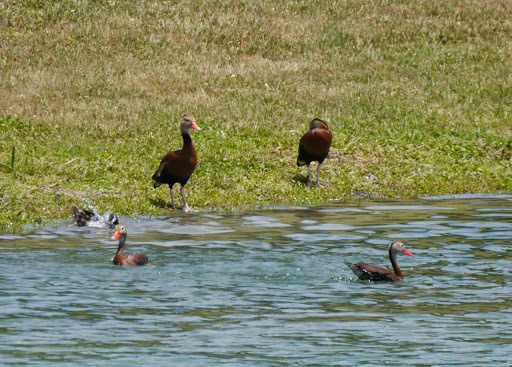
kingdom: Animalia
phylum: Chordata
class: Aves
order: Anseriformes
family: Anatidae
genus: Dendrocygna
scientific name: Dendrocygna autumnalis
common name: Black-bellied whistling duck
